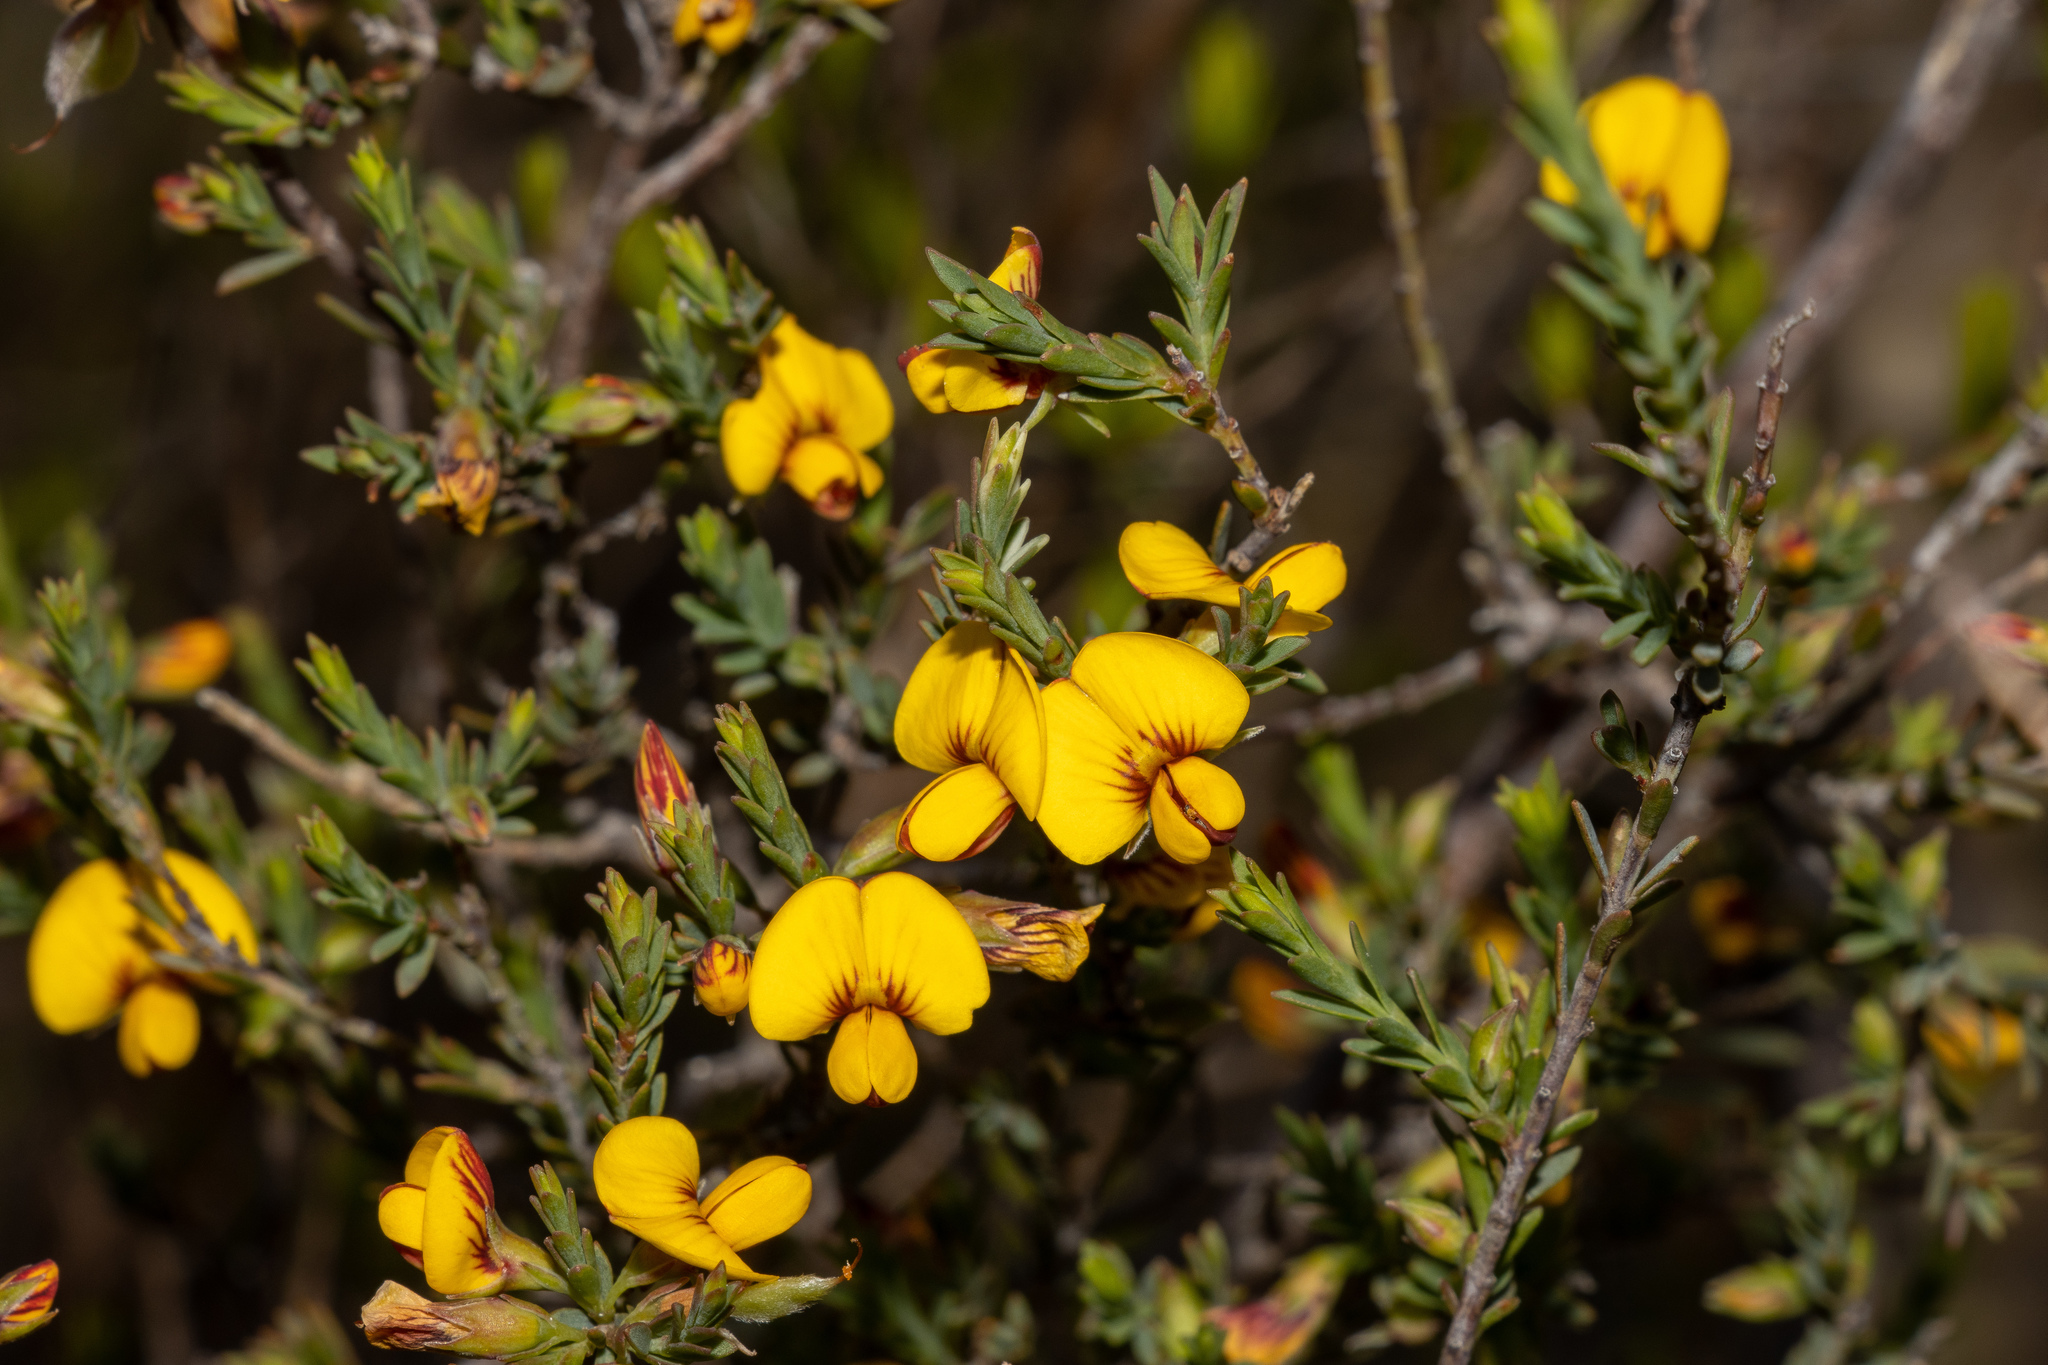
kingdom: Plantae
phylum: Tracheophyta
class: Magnoliopsida
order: Fabales
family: Fabaceae
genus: Eutaxia
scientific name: Eutaxia microphylla
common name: Mallee bush-pea
